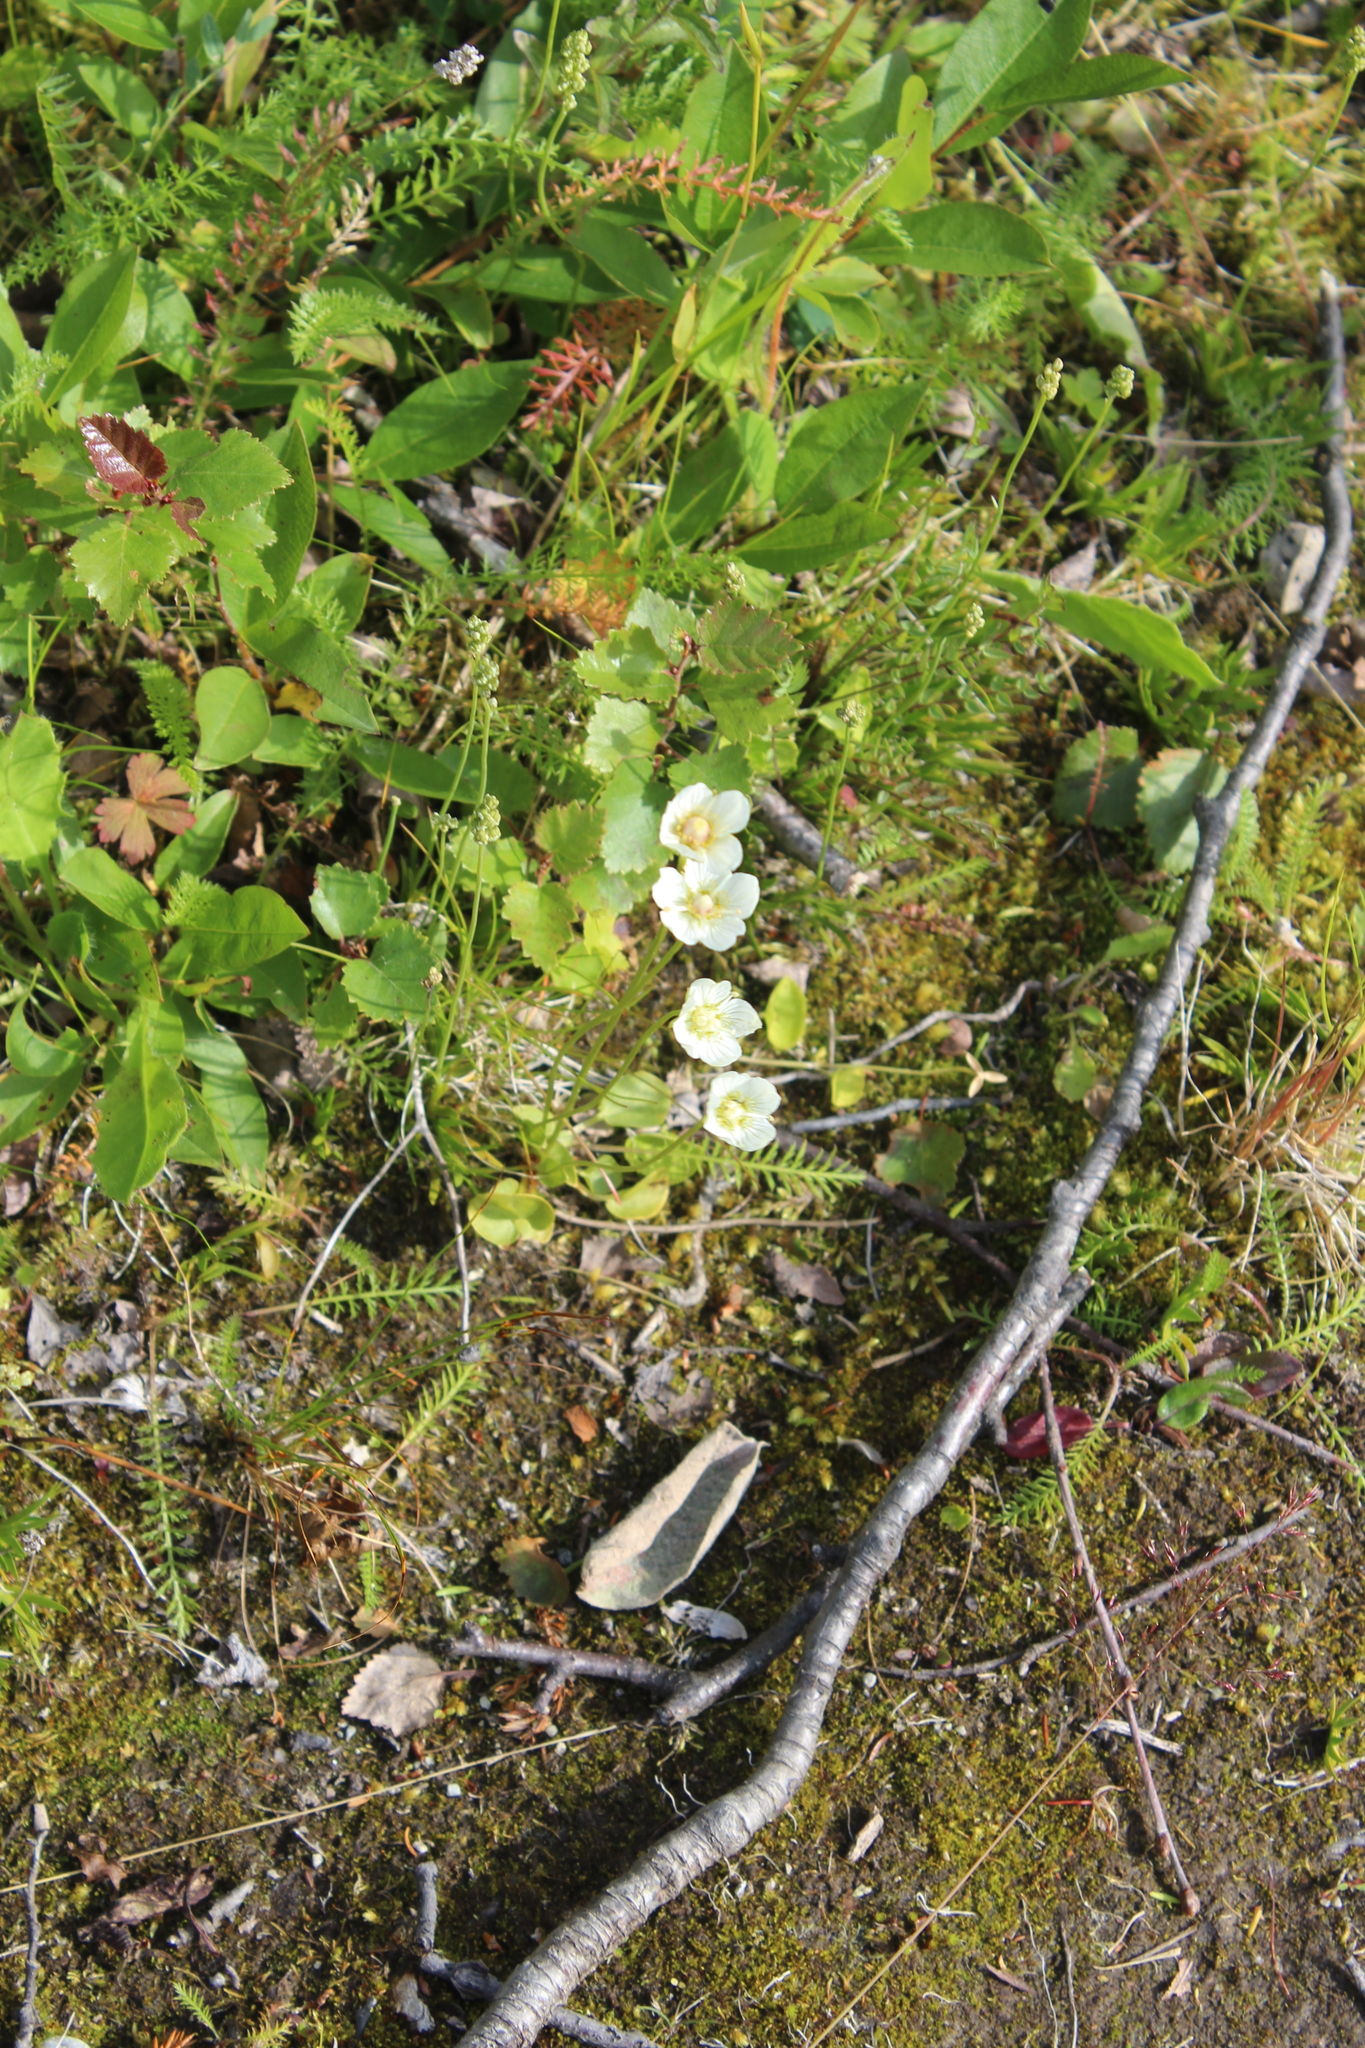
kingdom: Plantae
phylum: Tracheophyta
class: Magnoliopsida
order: Celastrales
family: Parnassiaceae
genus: Parnassia
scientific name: Parnassia palustris
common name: Grass-of-parnassus
